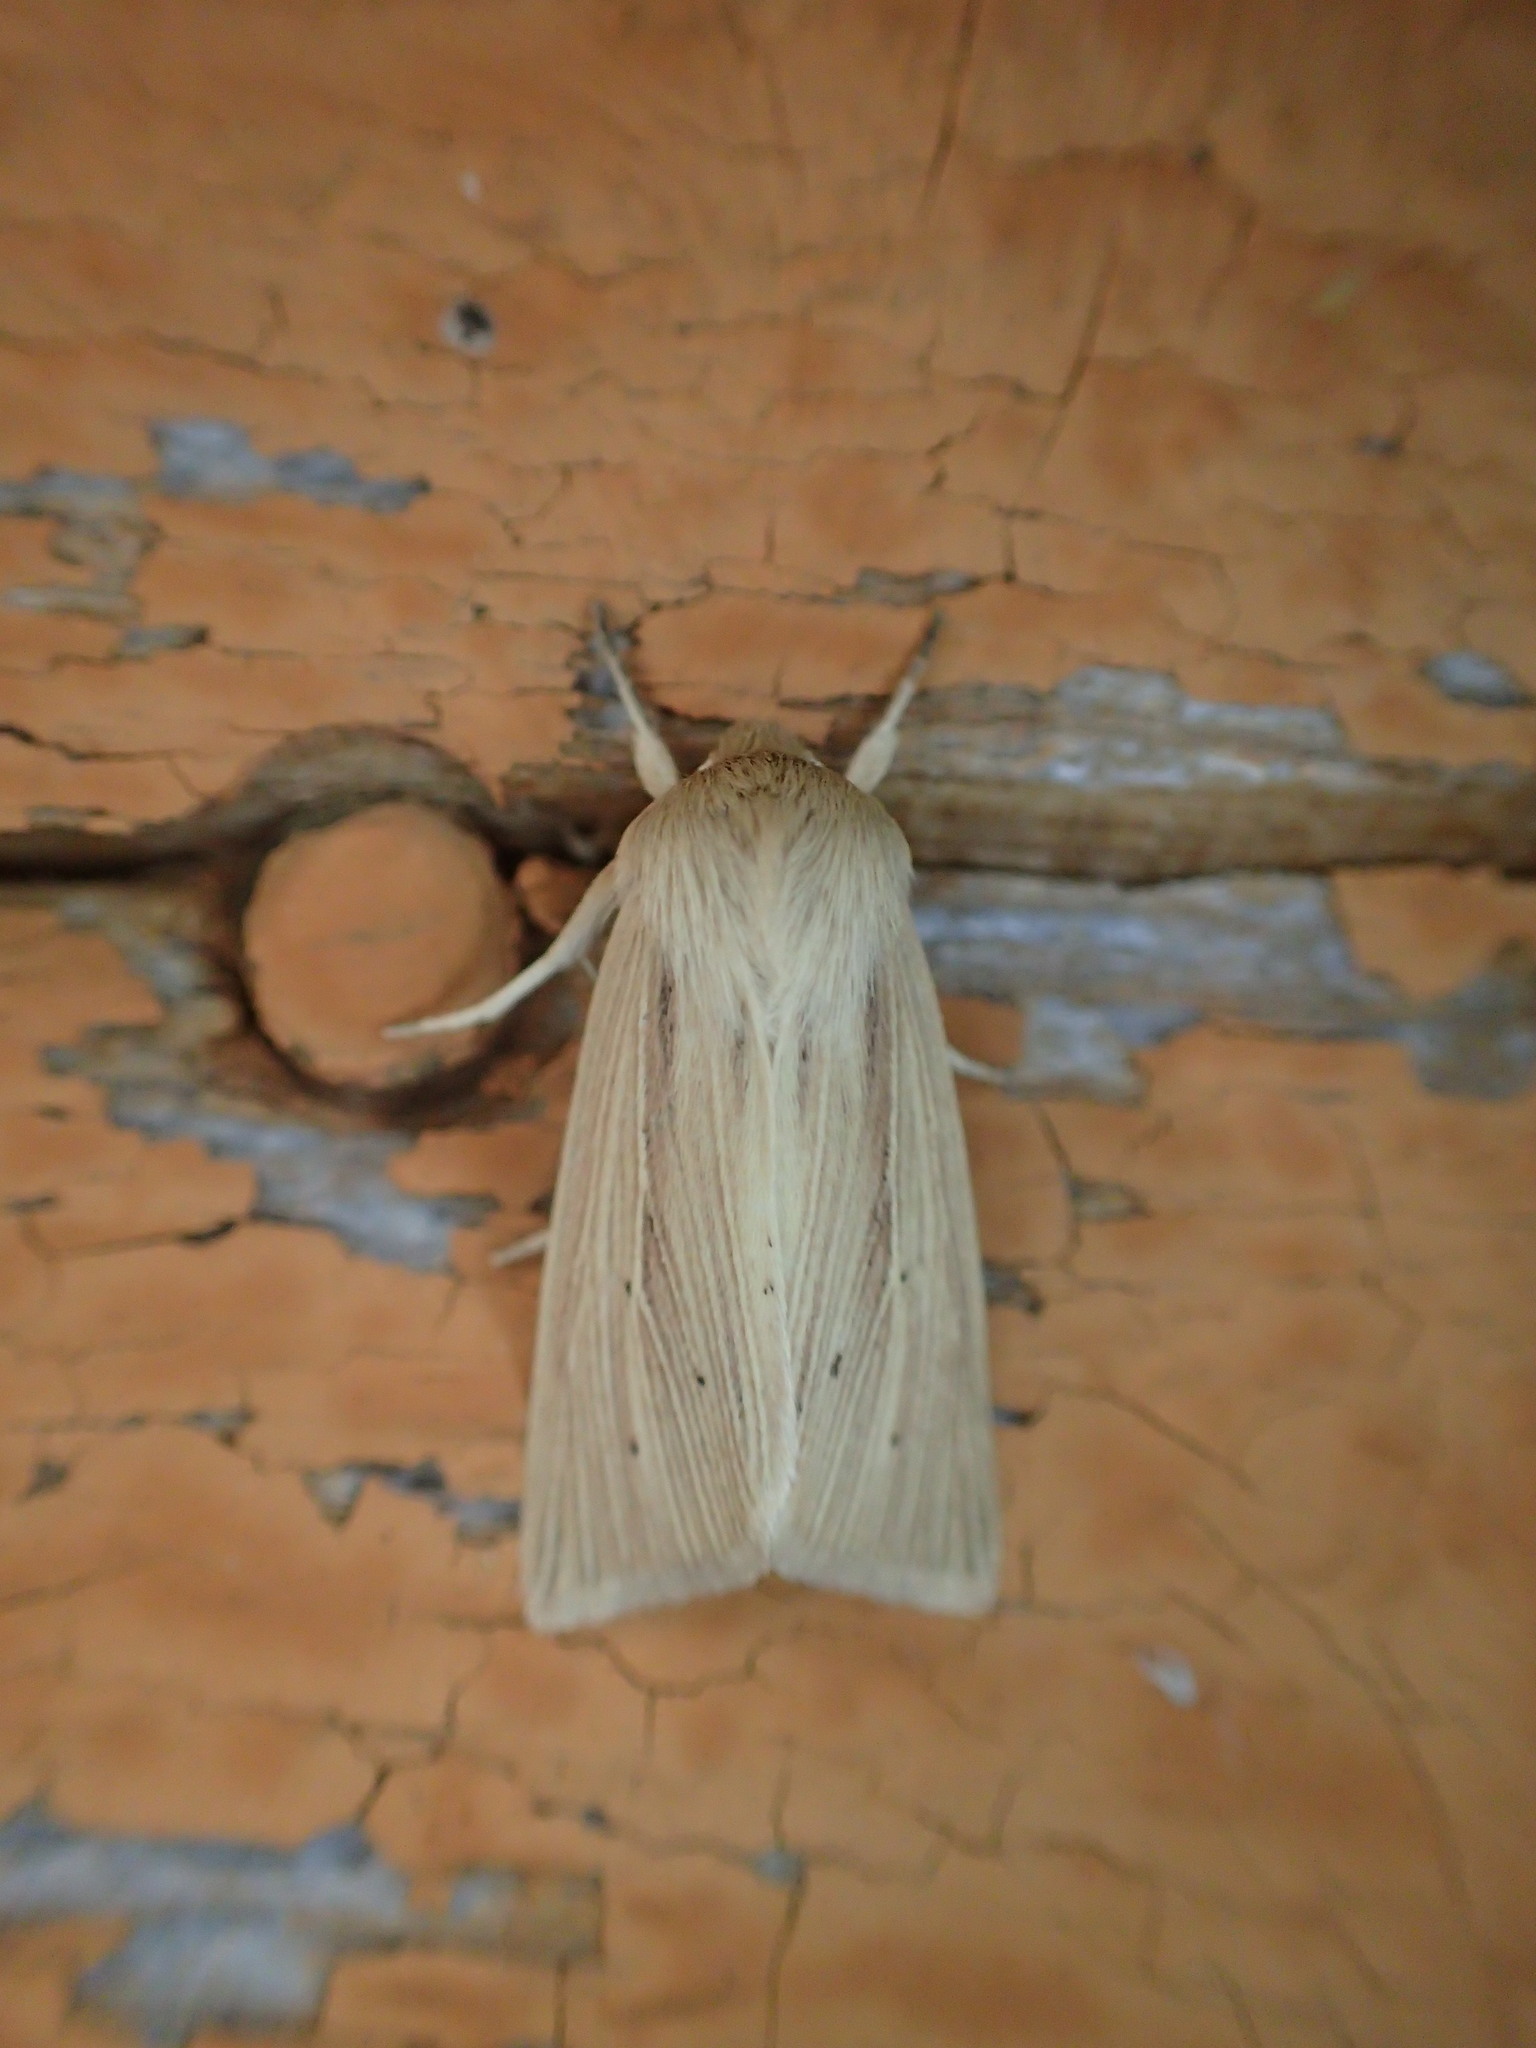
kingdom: Animalia
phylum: Arthropoda
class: Insecta
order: Lepidoptera
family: Noctuidae
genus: Mythimna
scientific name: Mythimna oxygala
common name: Lesser wainscot
